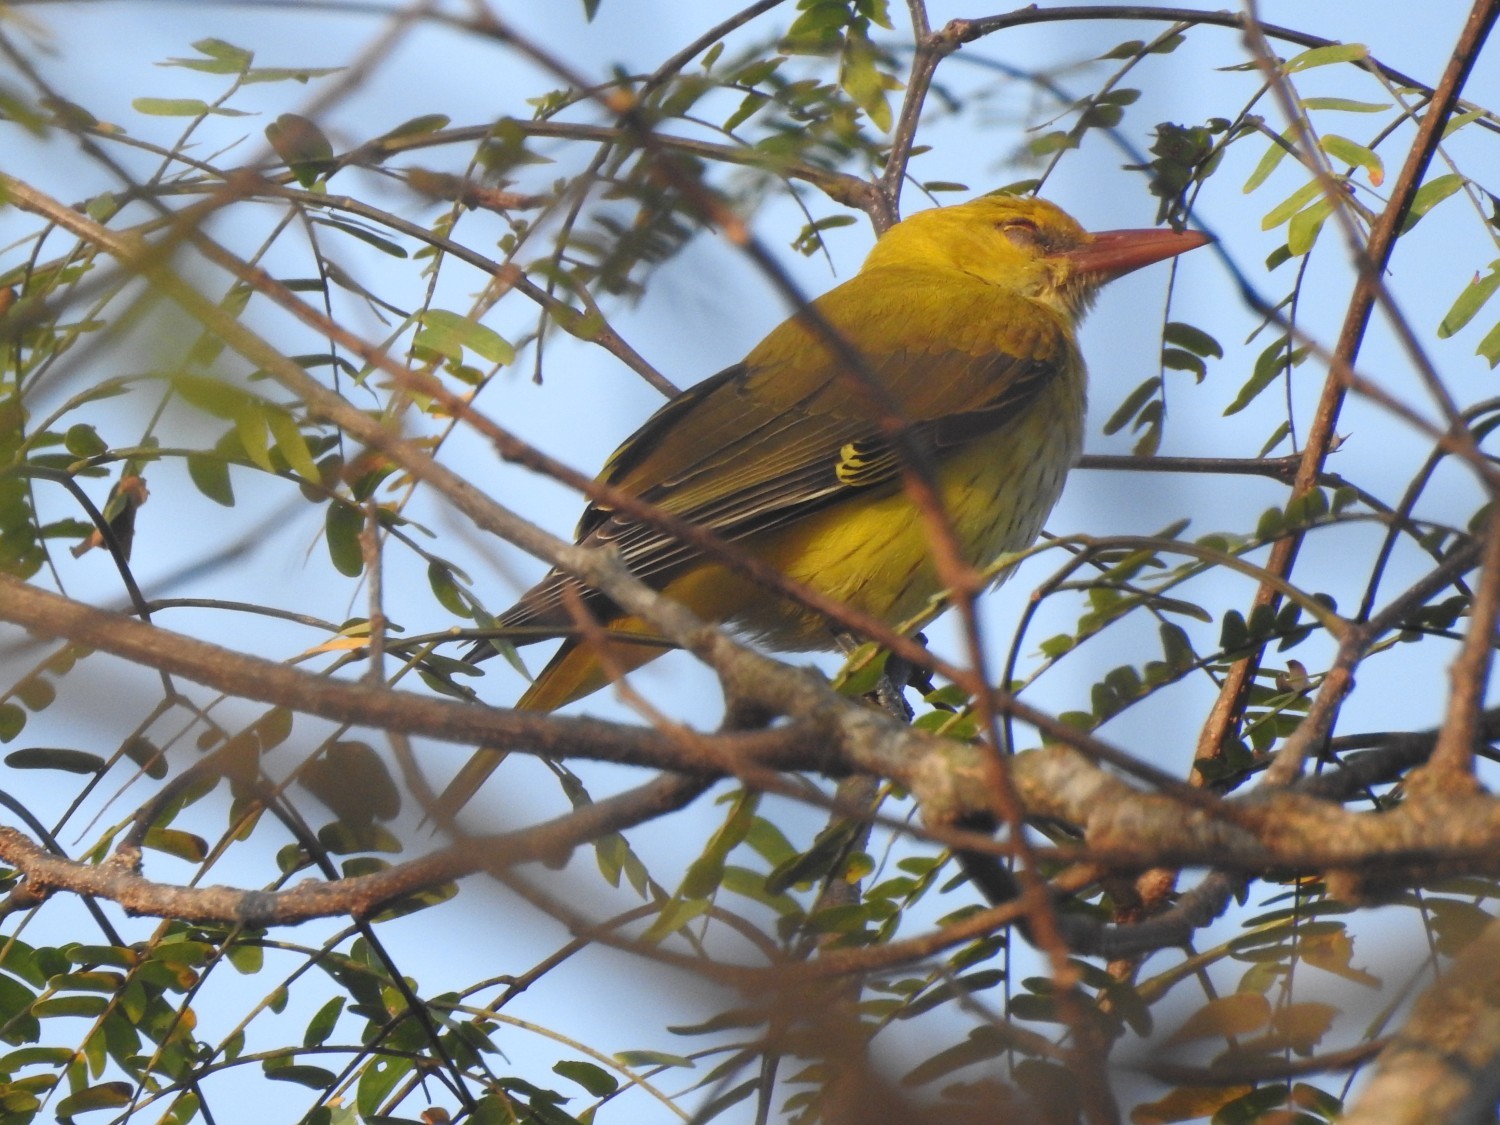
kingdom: Animalia
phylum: Chordata
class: Aves
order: Passeriformes
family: Oriolidae
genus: Oriolus
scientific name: Oriolus kundoo
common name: Indian golden oriole
